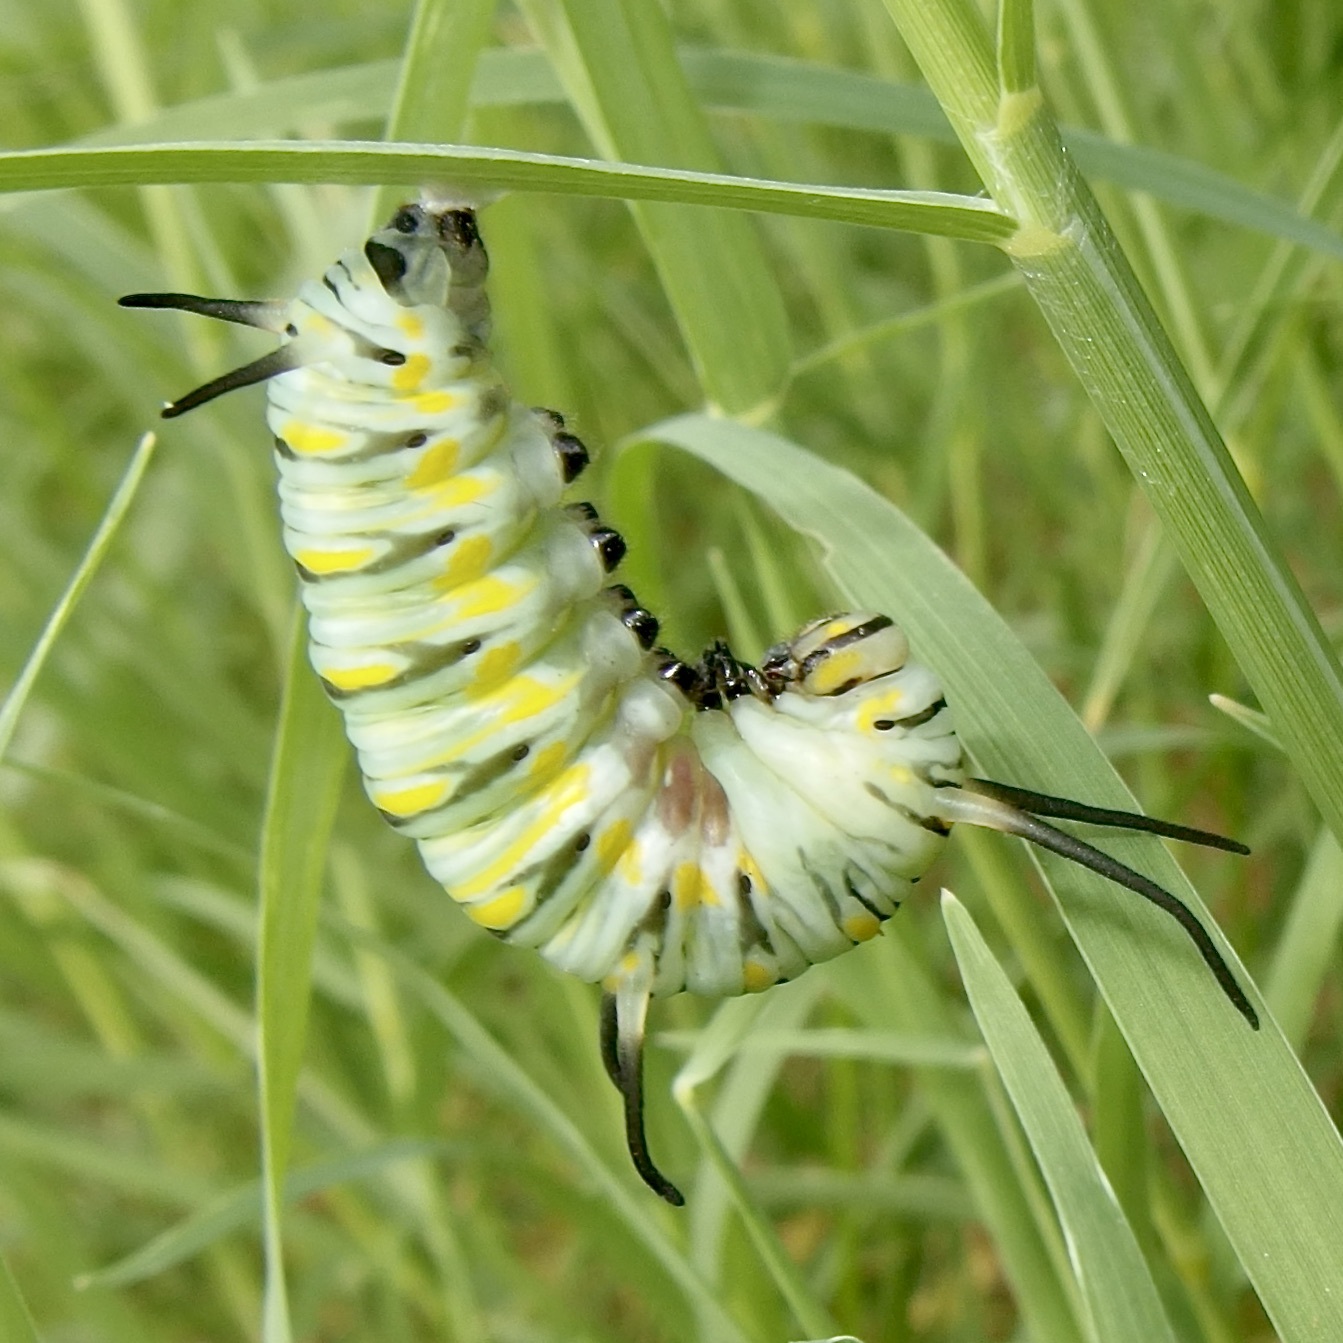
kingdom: Animalia
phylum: Arthropoda
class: Insecta
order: Lepidoptera
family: Nymphalidae
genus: Danaus
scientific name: Danaus gilippus
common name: Queen
